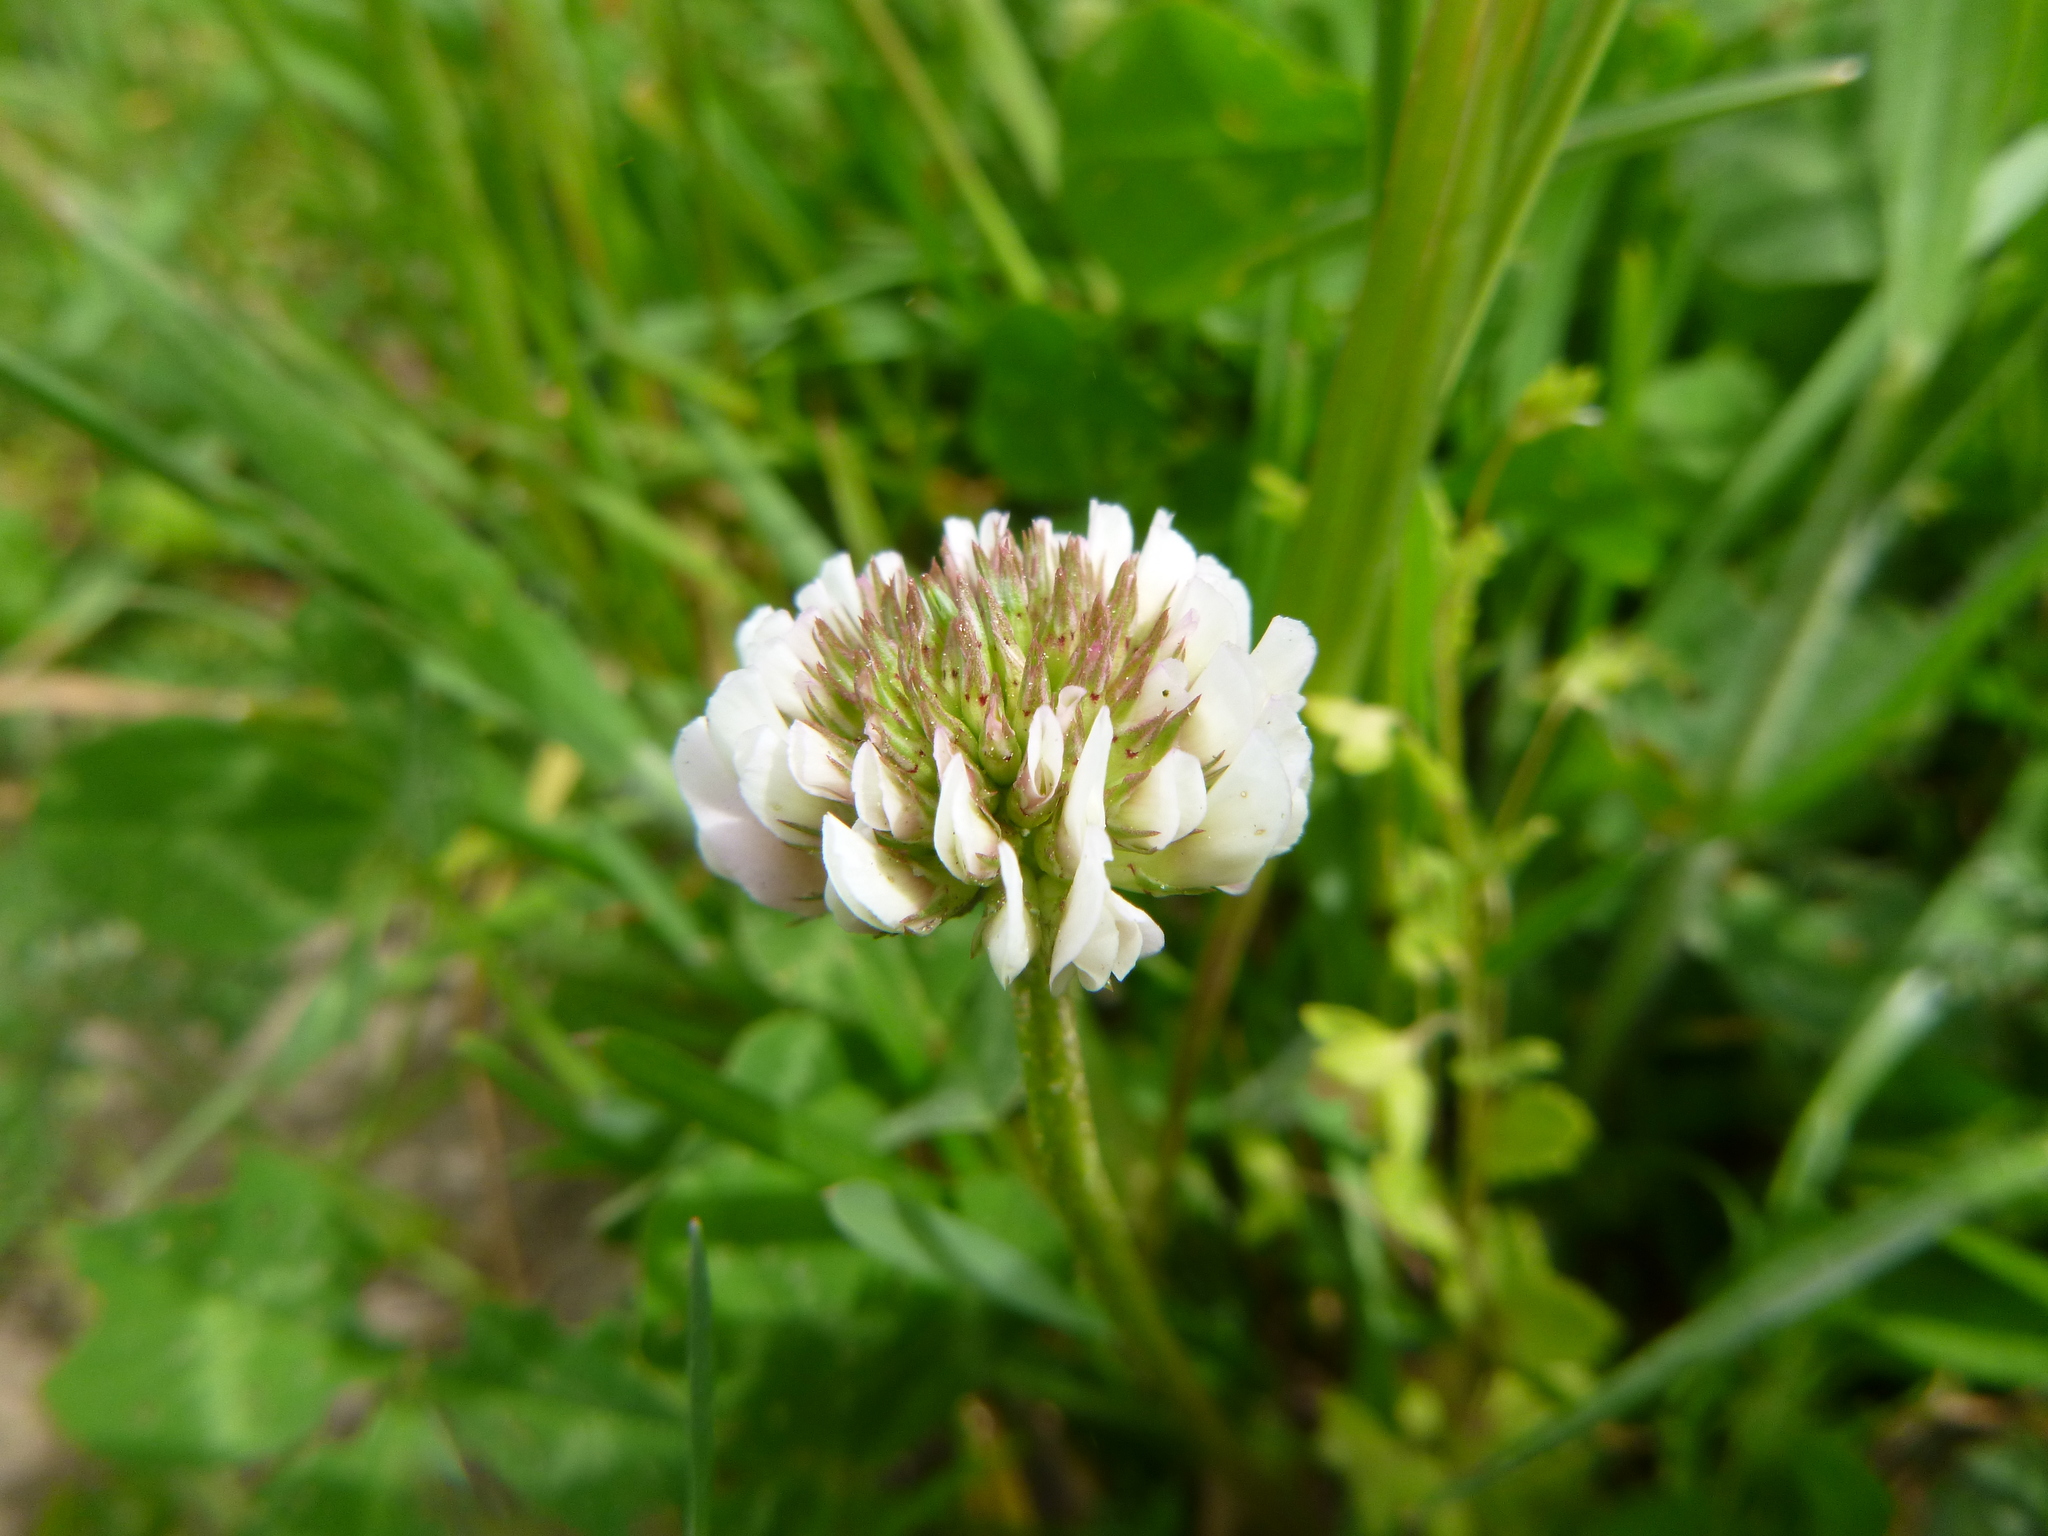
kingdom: Plantae
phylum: Tracheophyta
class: Magnoliopsida
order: Fabales
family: Fabaceae
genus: Trifolium
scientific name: Trifolium repens
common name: White clover
